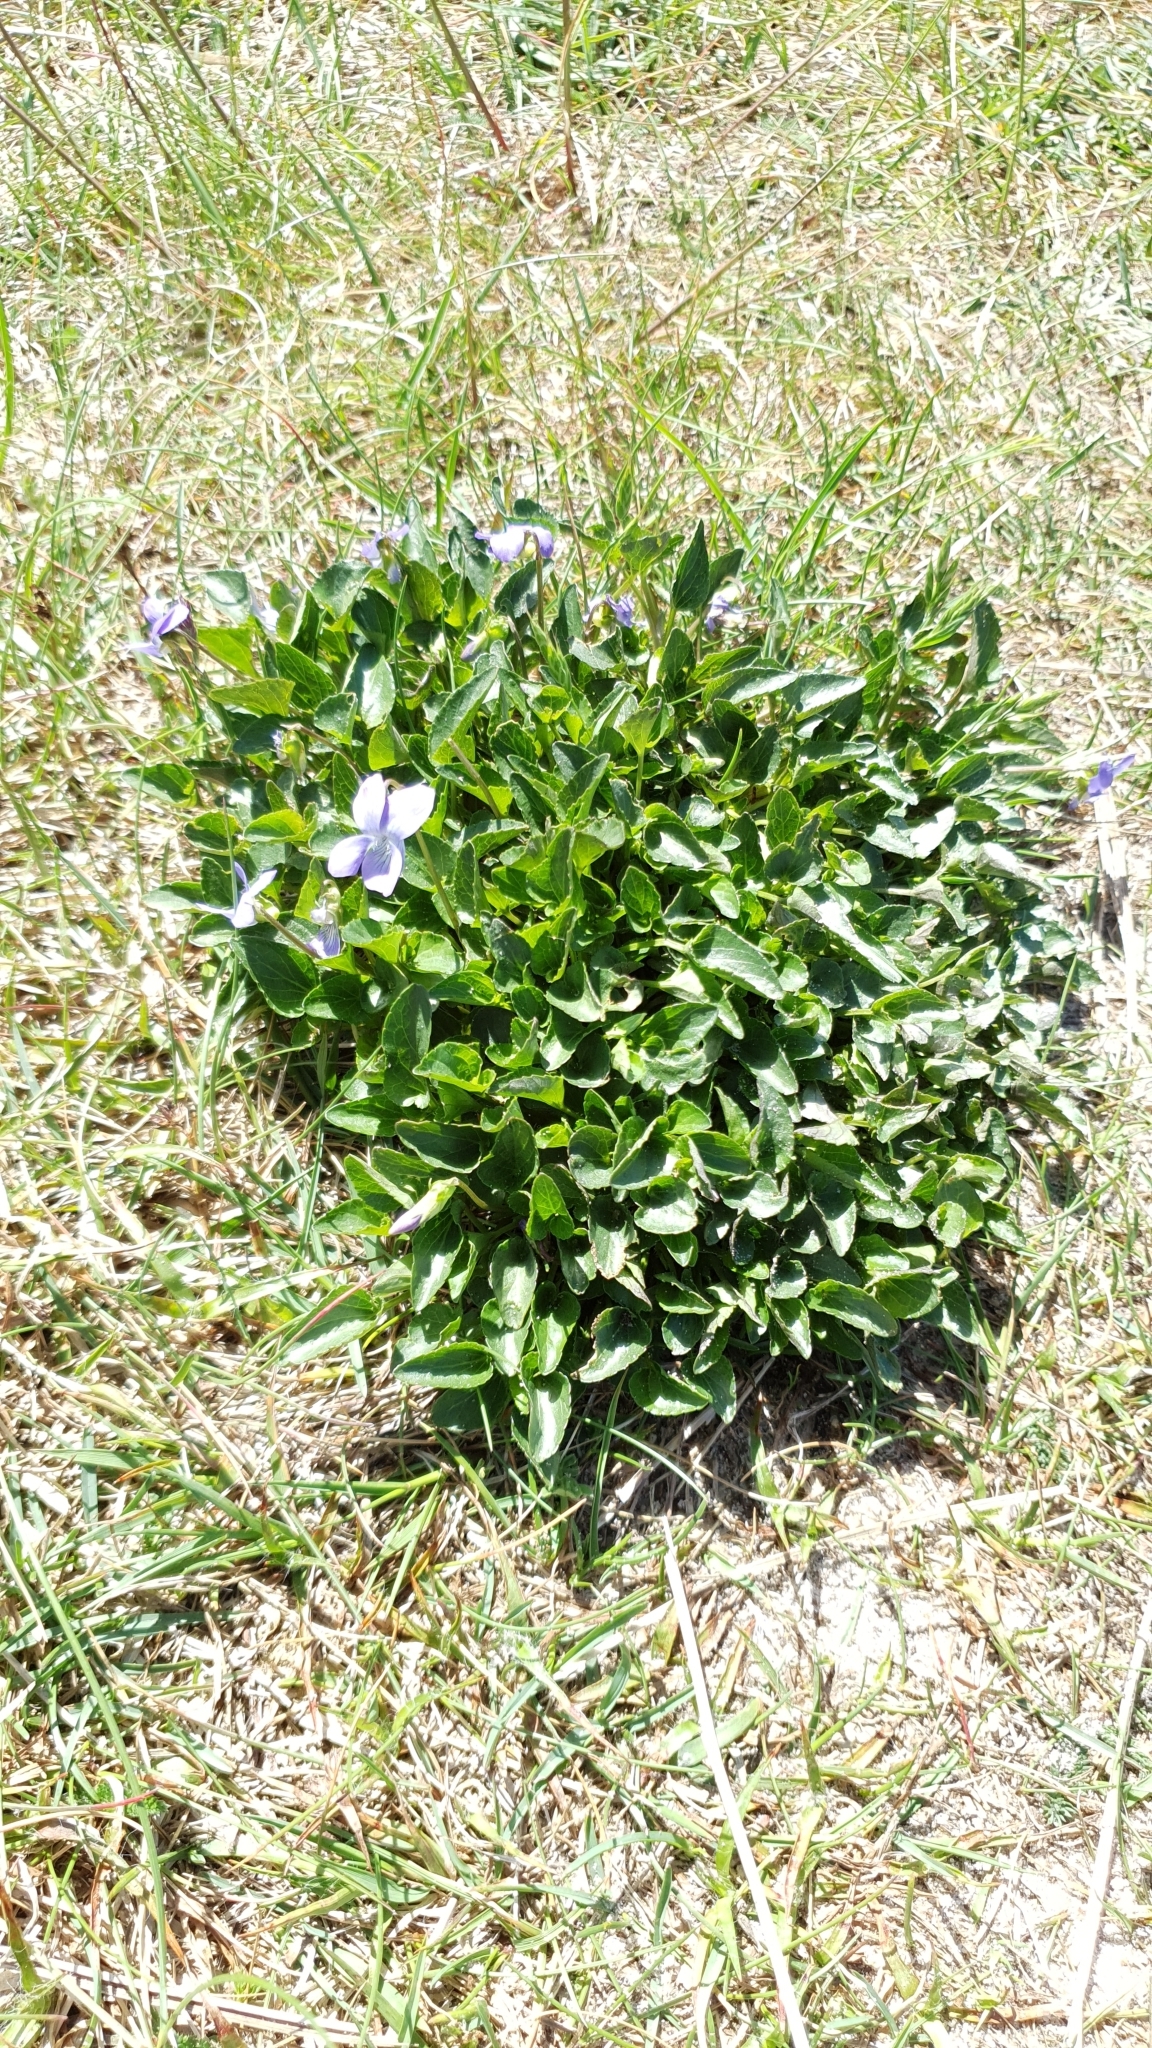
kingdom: Plantae
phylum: Tracheophyta
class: Magnoliopsida
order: Malpighiales
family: Violaceae
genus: Viola
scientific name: Viola canina
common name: Heath dog-violet
